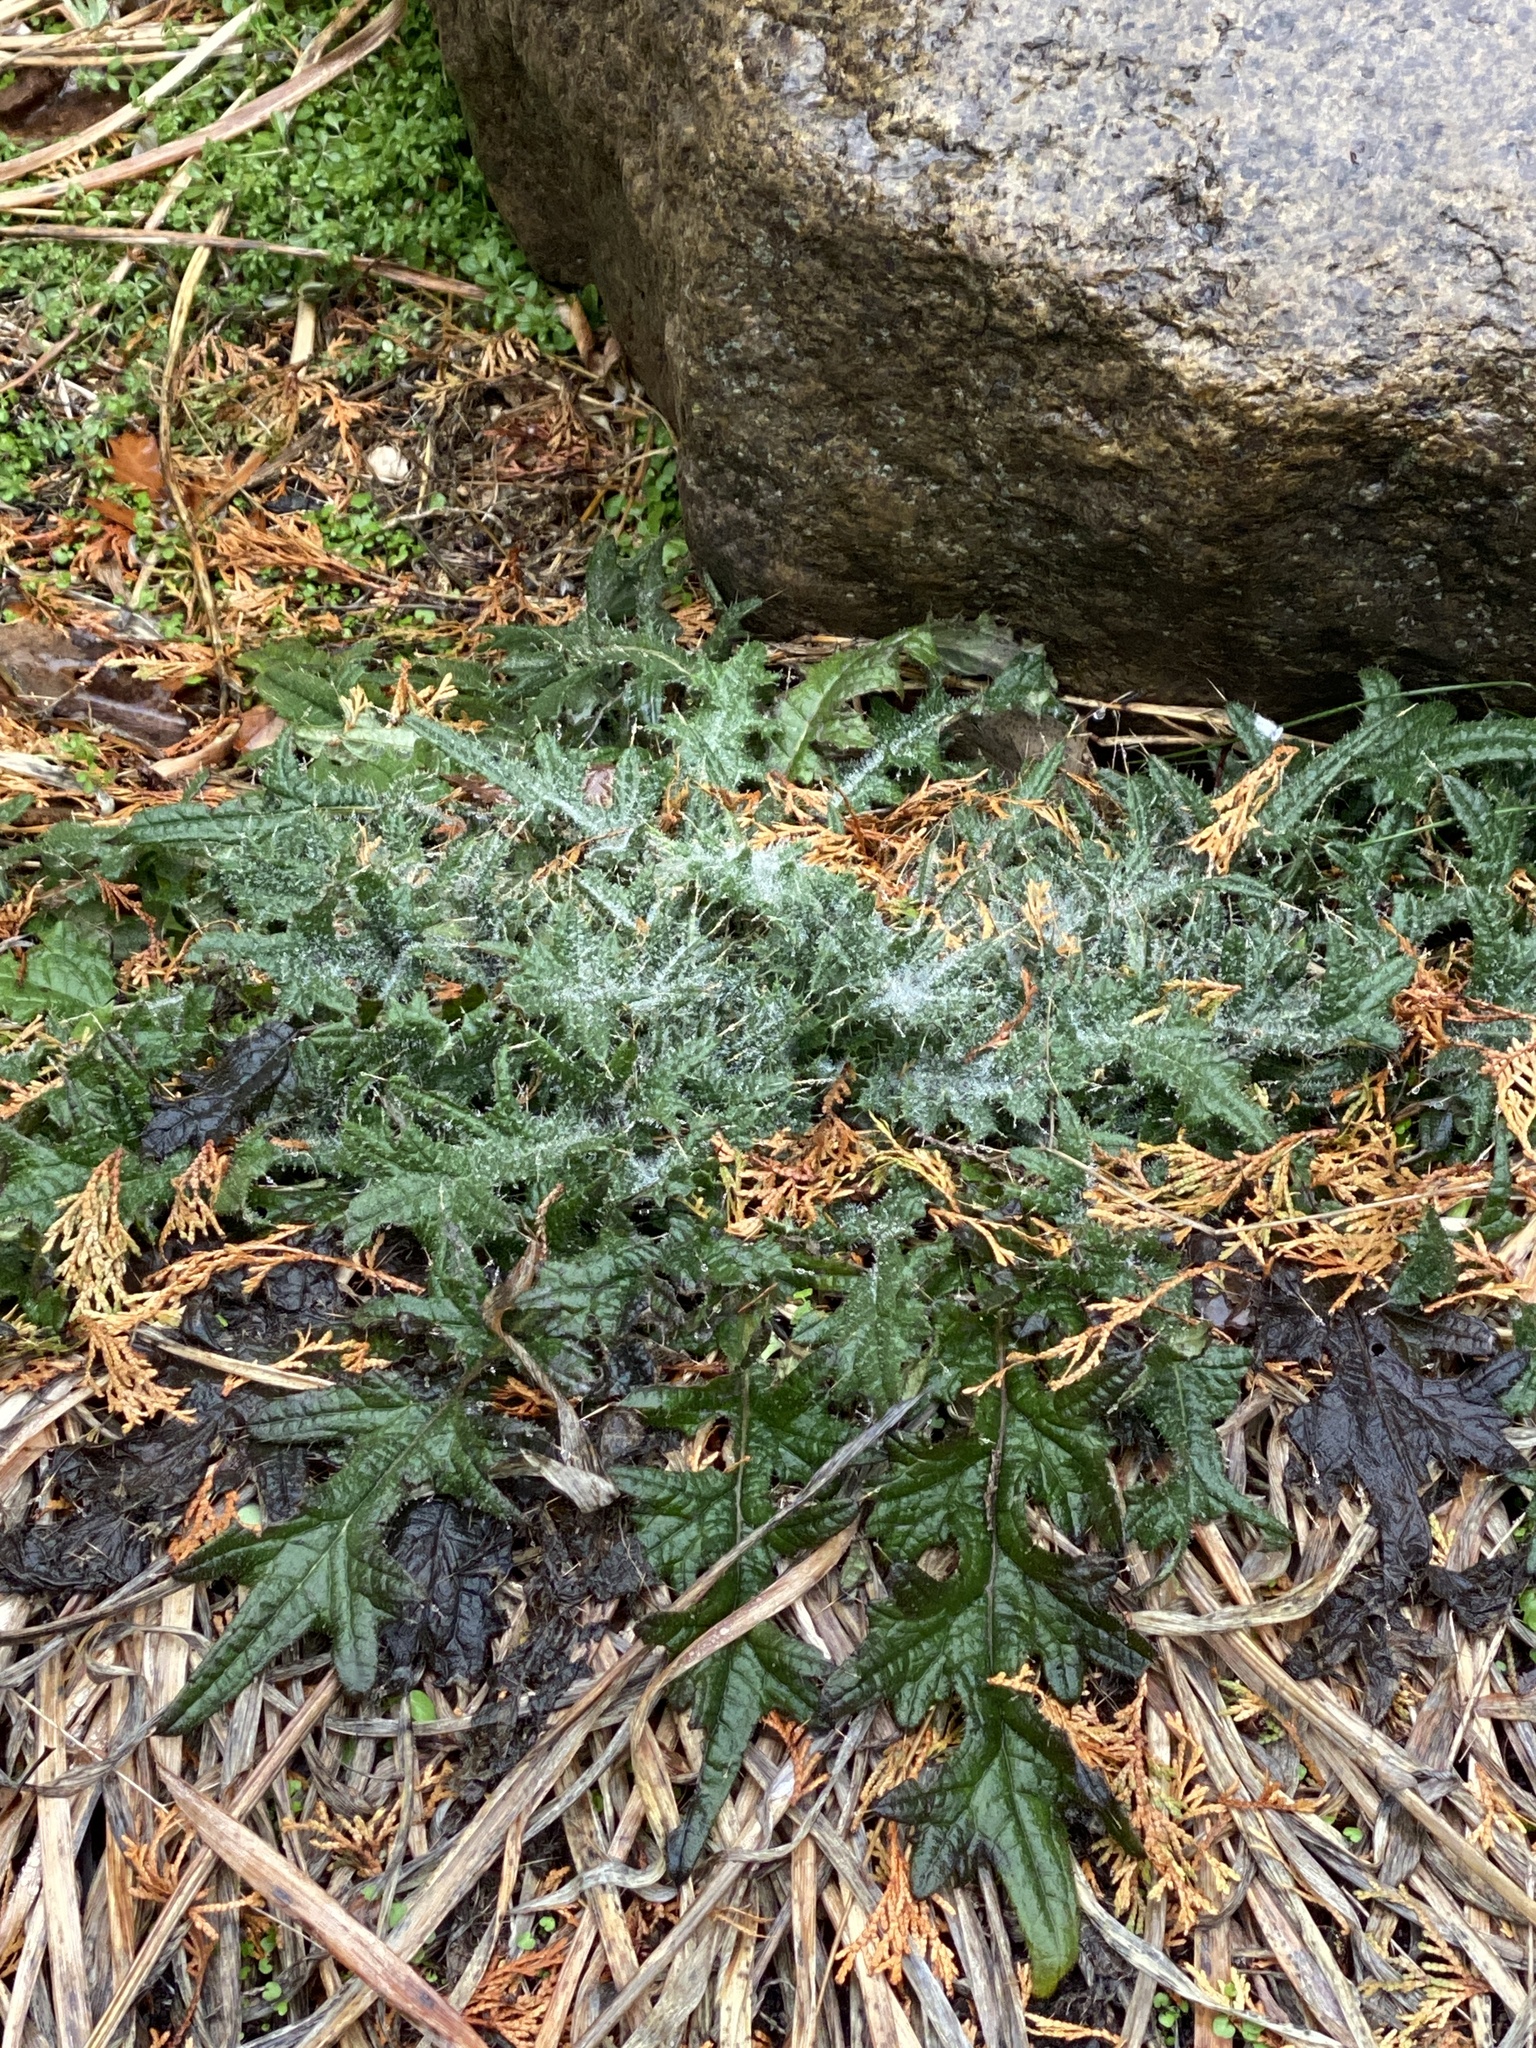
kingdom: Plantae
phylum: Tracheophyta
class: Magnoliopsida
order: Asterales
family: Asteraceae
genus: Cirsium
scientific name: Cirsium vulgare
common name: Bull thistle
